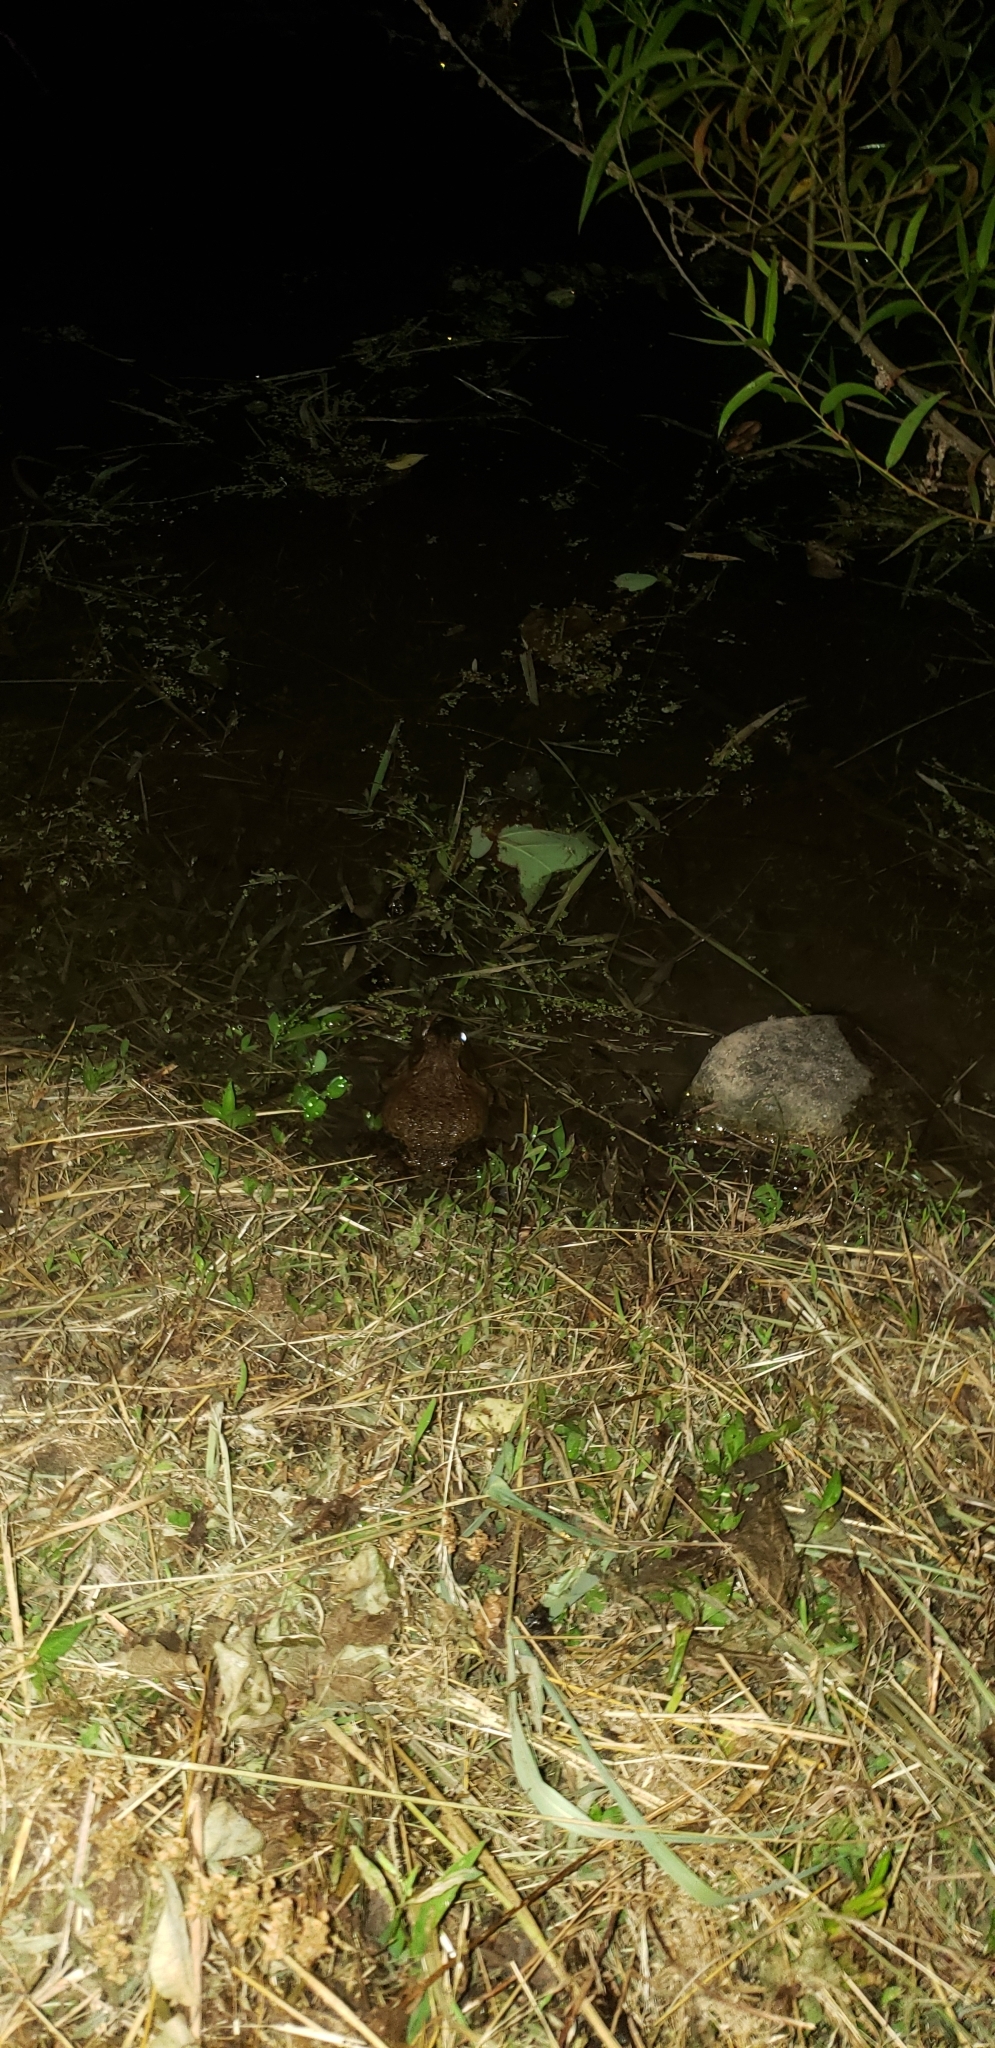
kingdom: Animalia
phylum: Chordata
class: Amphibia
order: Anura
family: Ranidae
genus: Lithobates
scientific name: Lithobates catesbeianus
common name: American bullfrog
